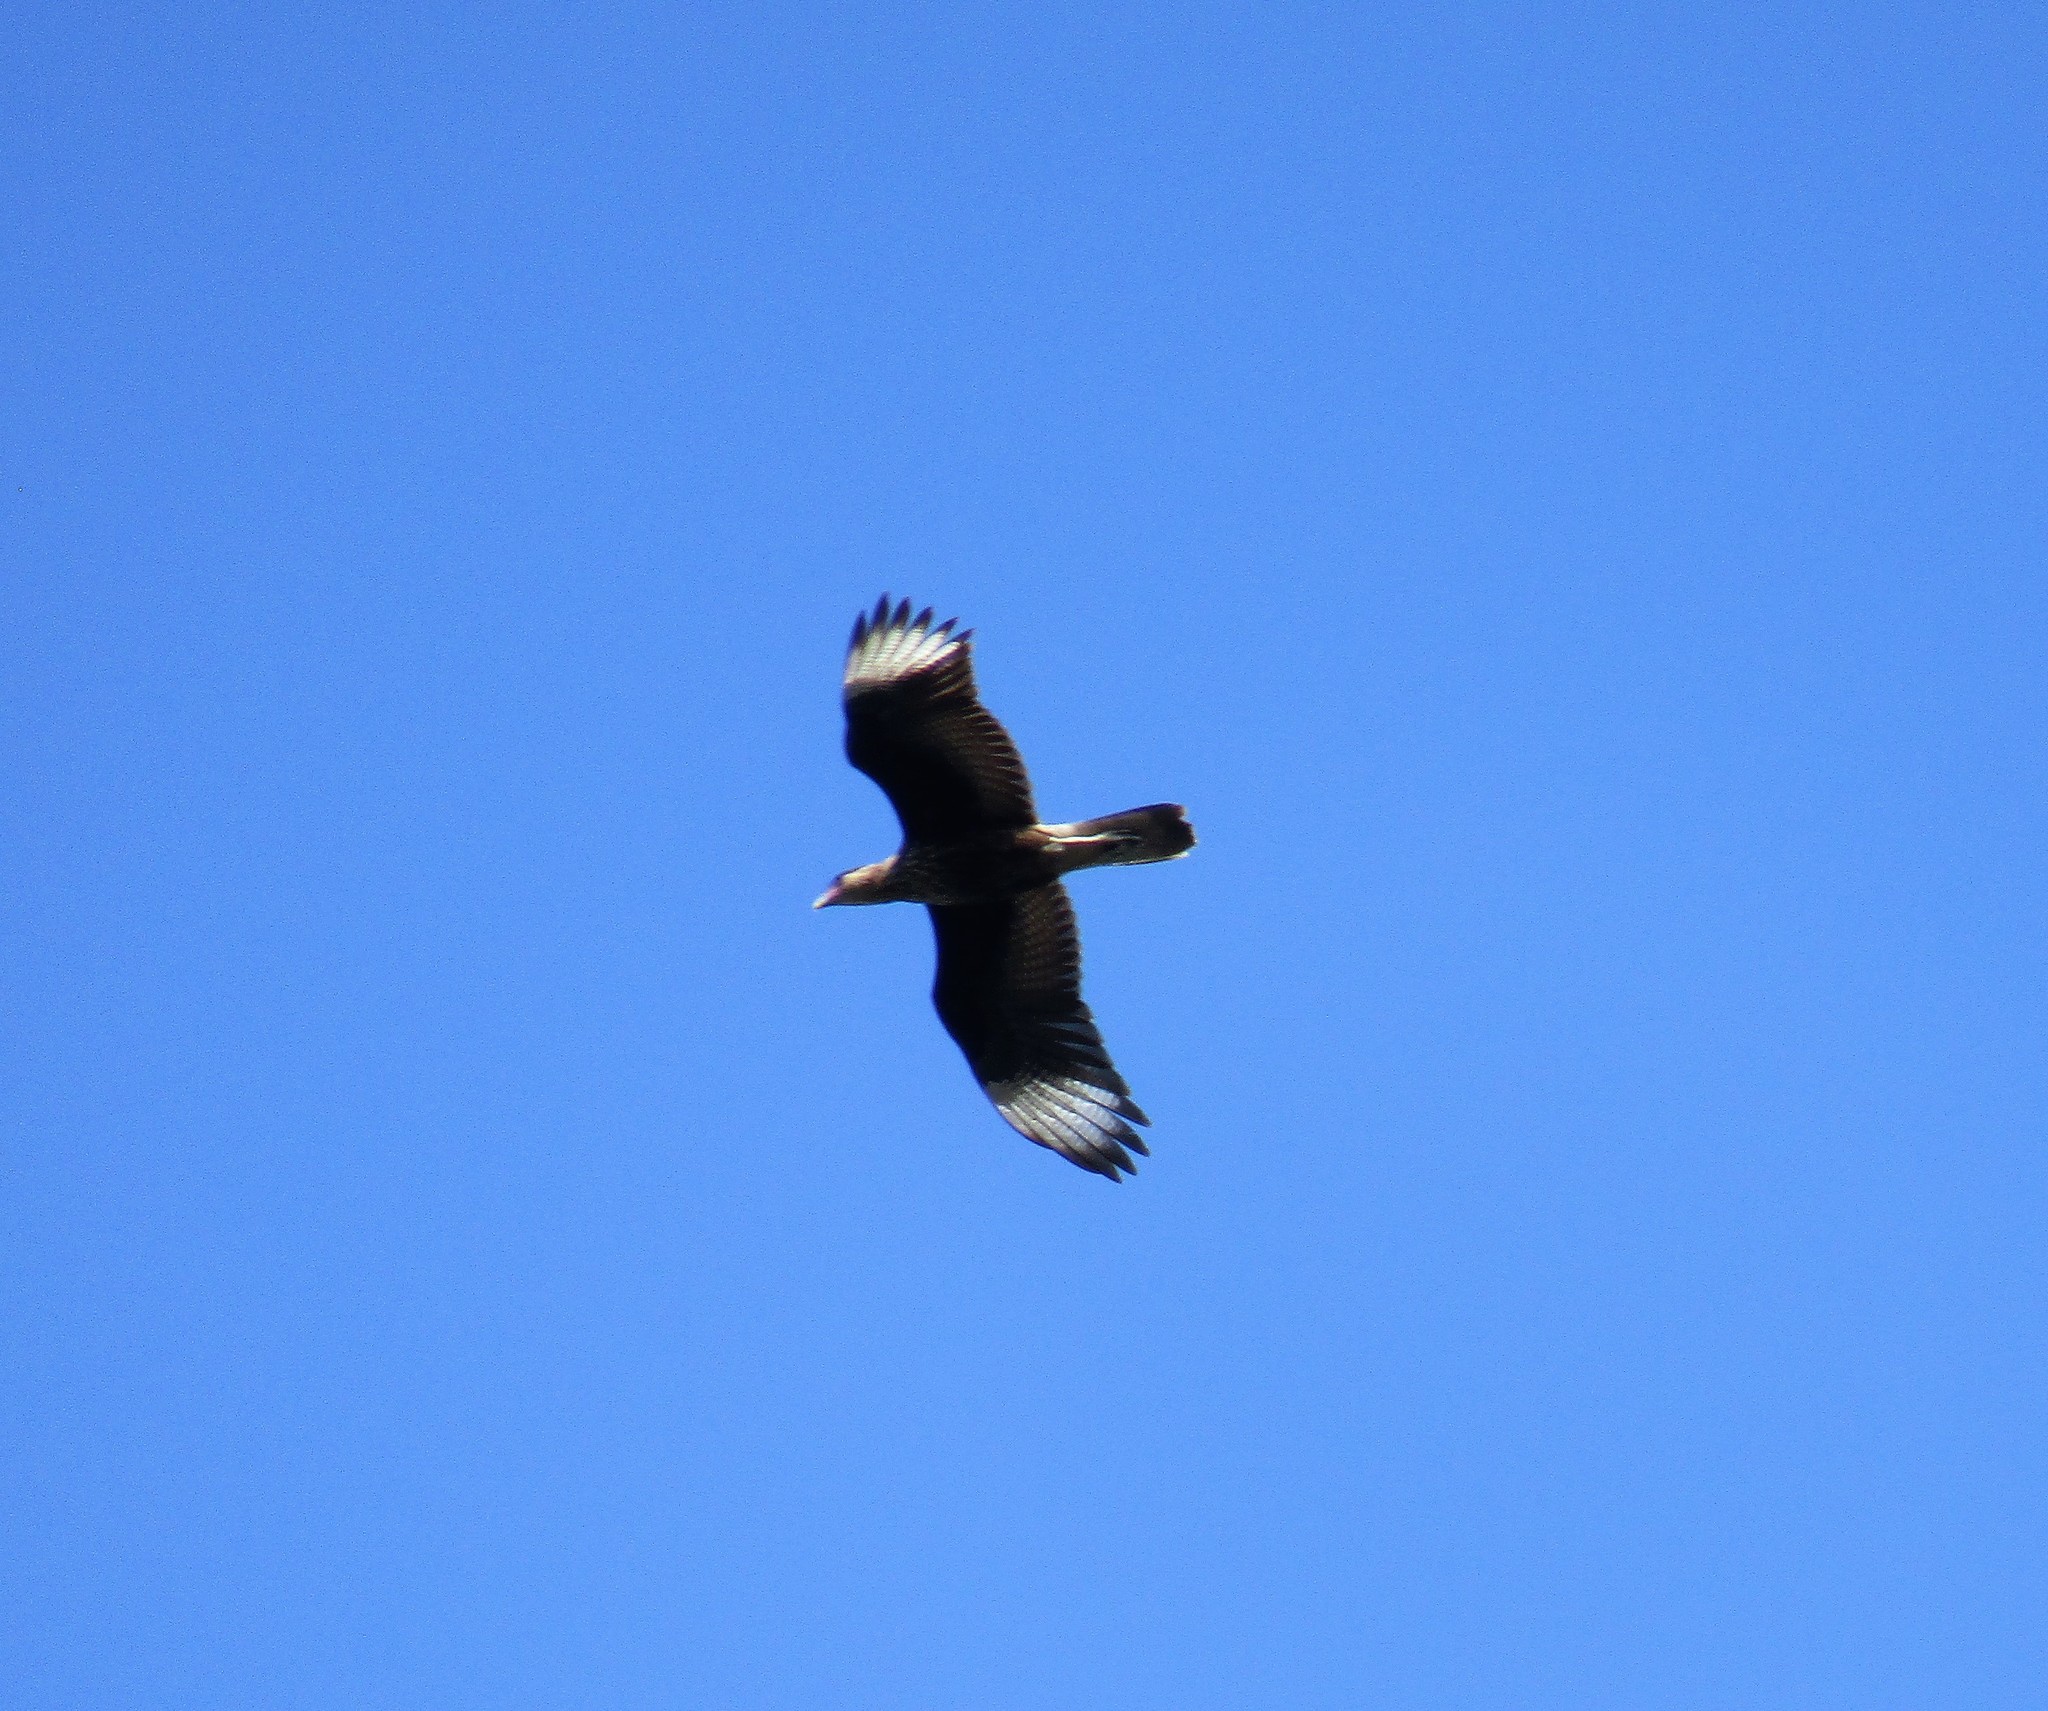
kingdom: Animalia
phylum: Chordata
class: Aves
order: Falconiformes
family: Falconidae
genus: Caracara
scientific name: Caracara plancus
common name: Southern caracara
